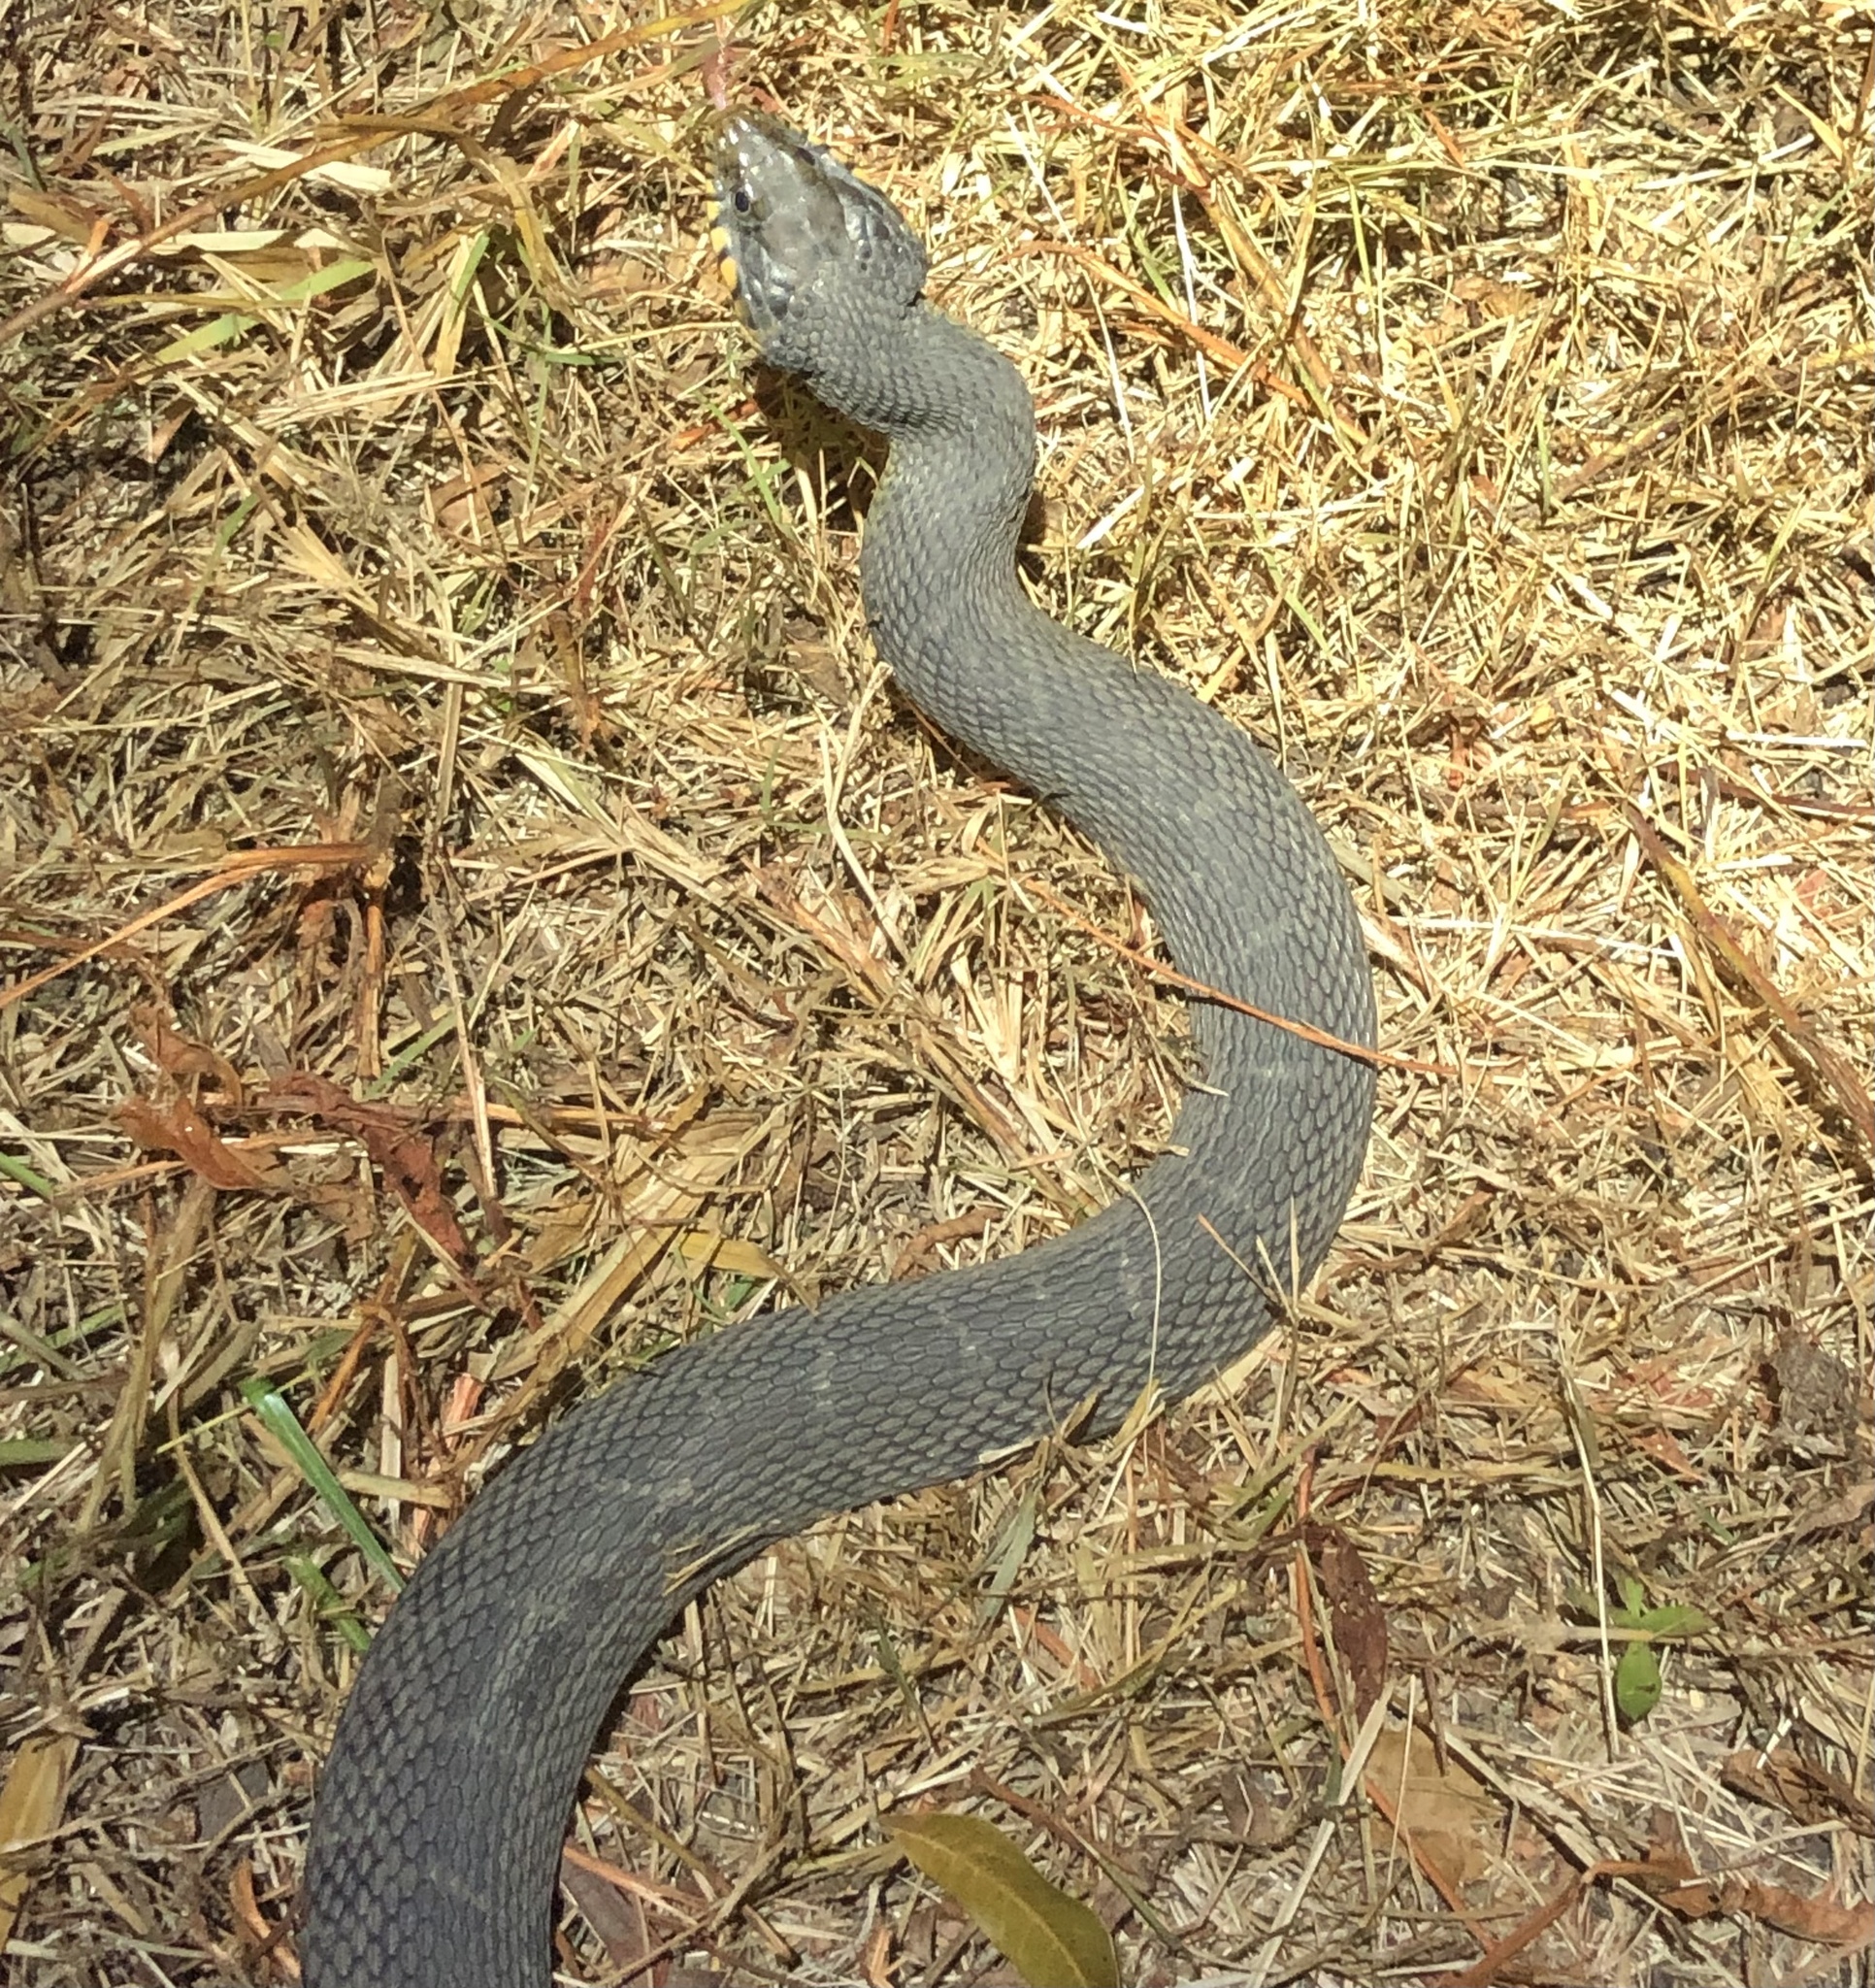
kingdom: Animalia
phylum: Chordata
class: Squamata
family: Colubridae
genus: Nerodia
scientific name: Nerodia erythrogaster
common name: Plainbelly water snake
